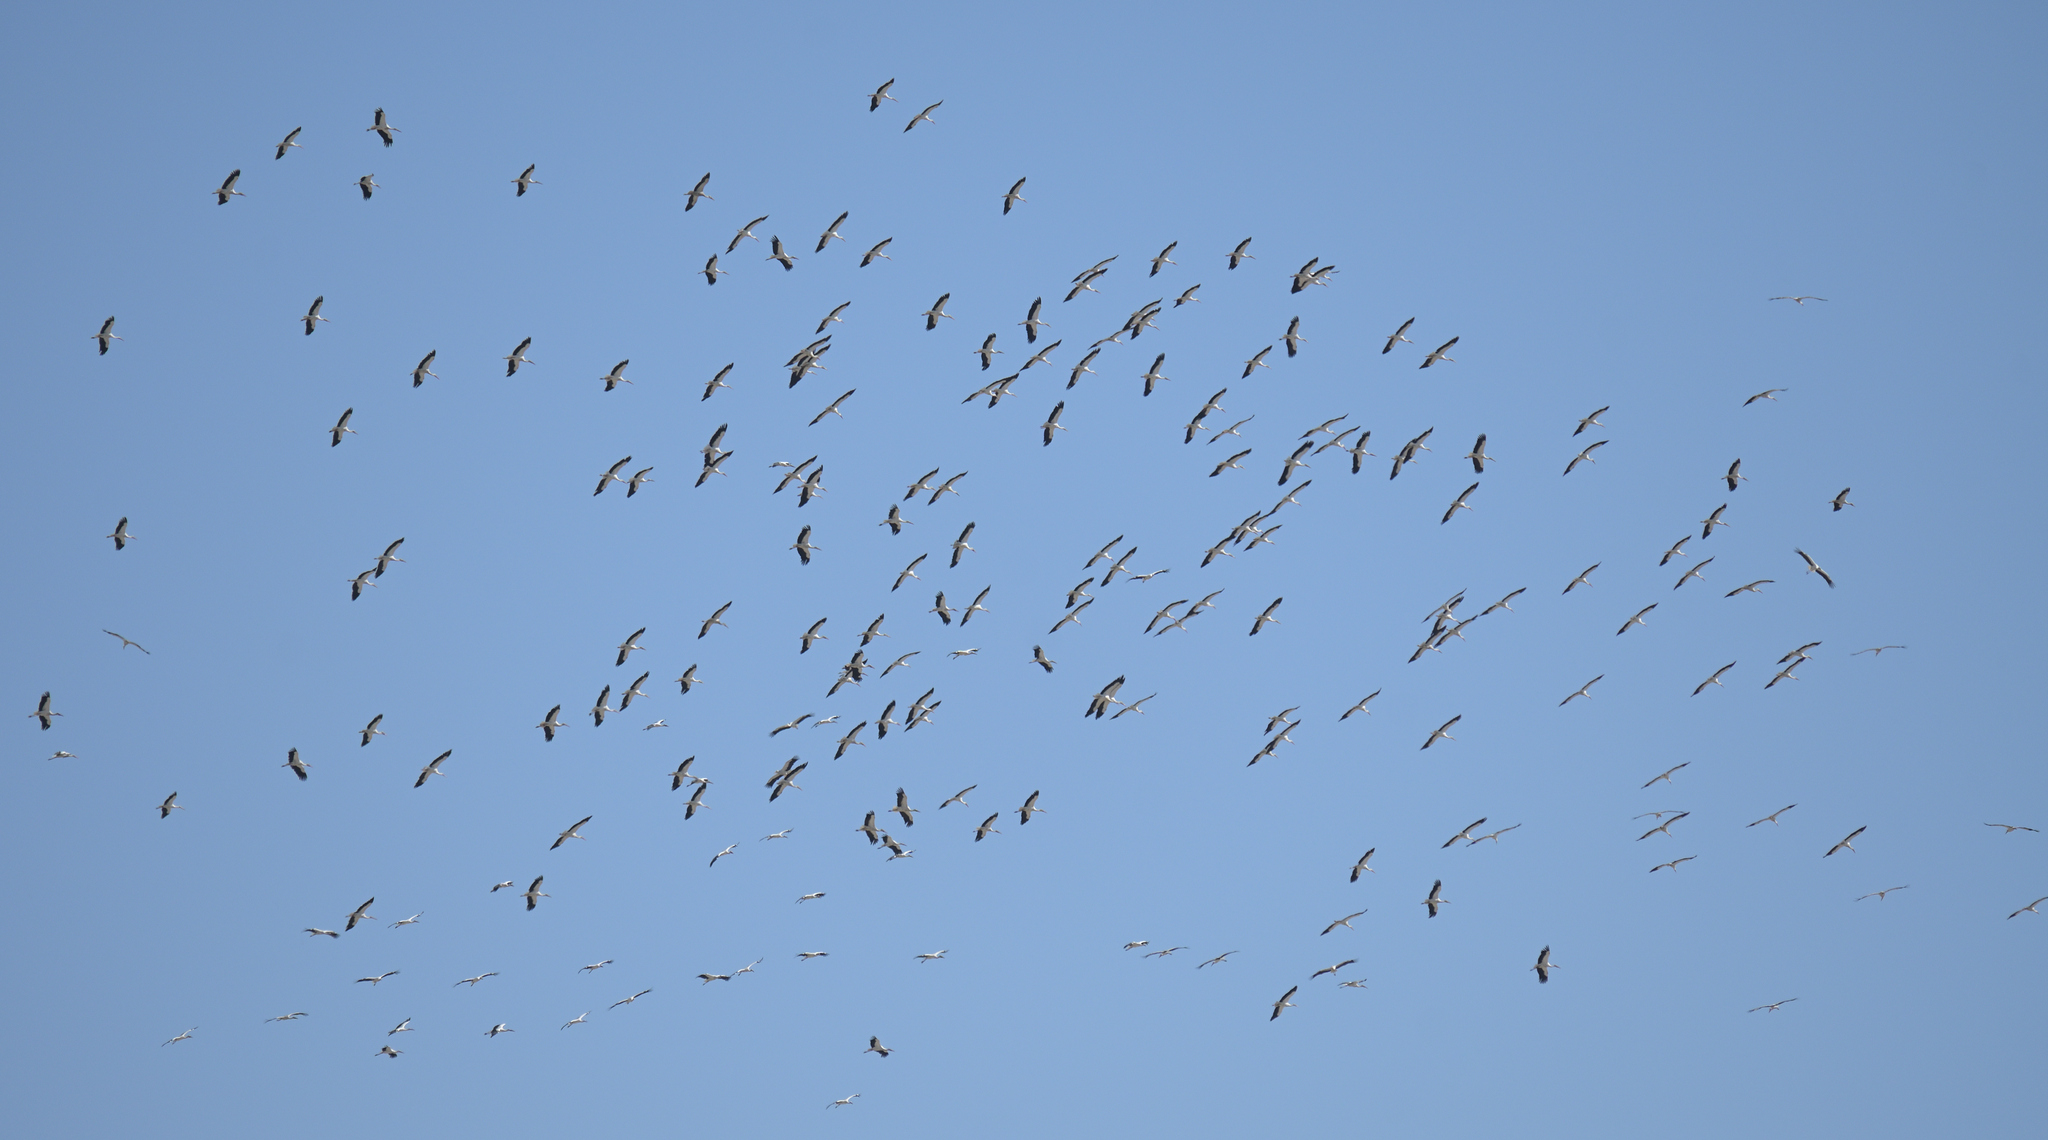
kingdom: Animalia
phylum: Chordata
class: Aves
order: Ciconiiformes
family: Ciconiidae
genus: Ciconia
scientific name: Ciconia ciconia
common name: White stork
